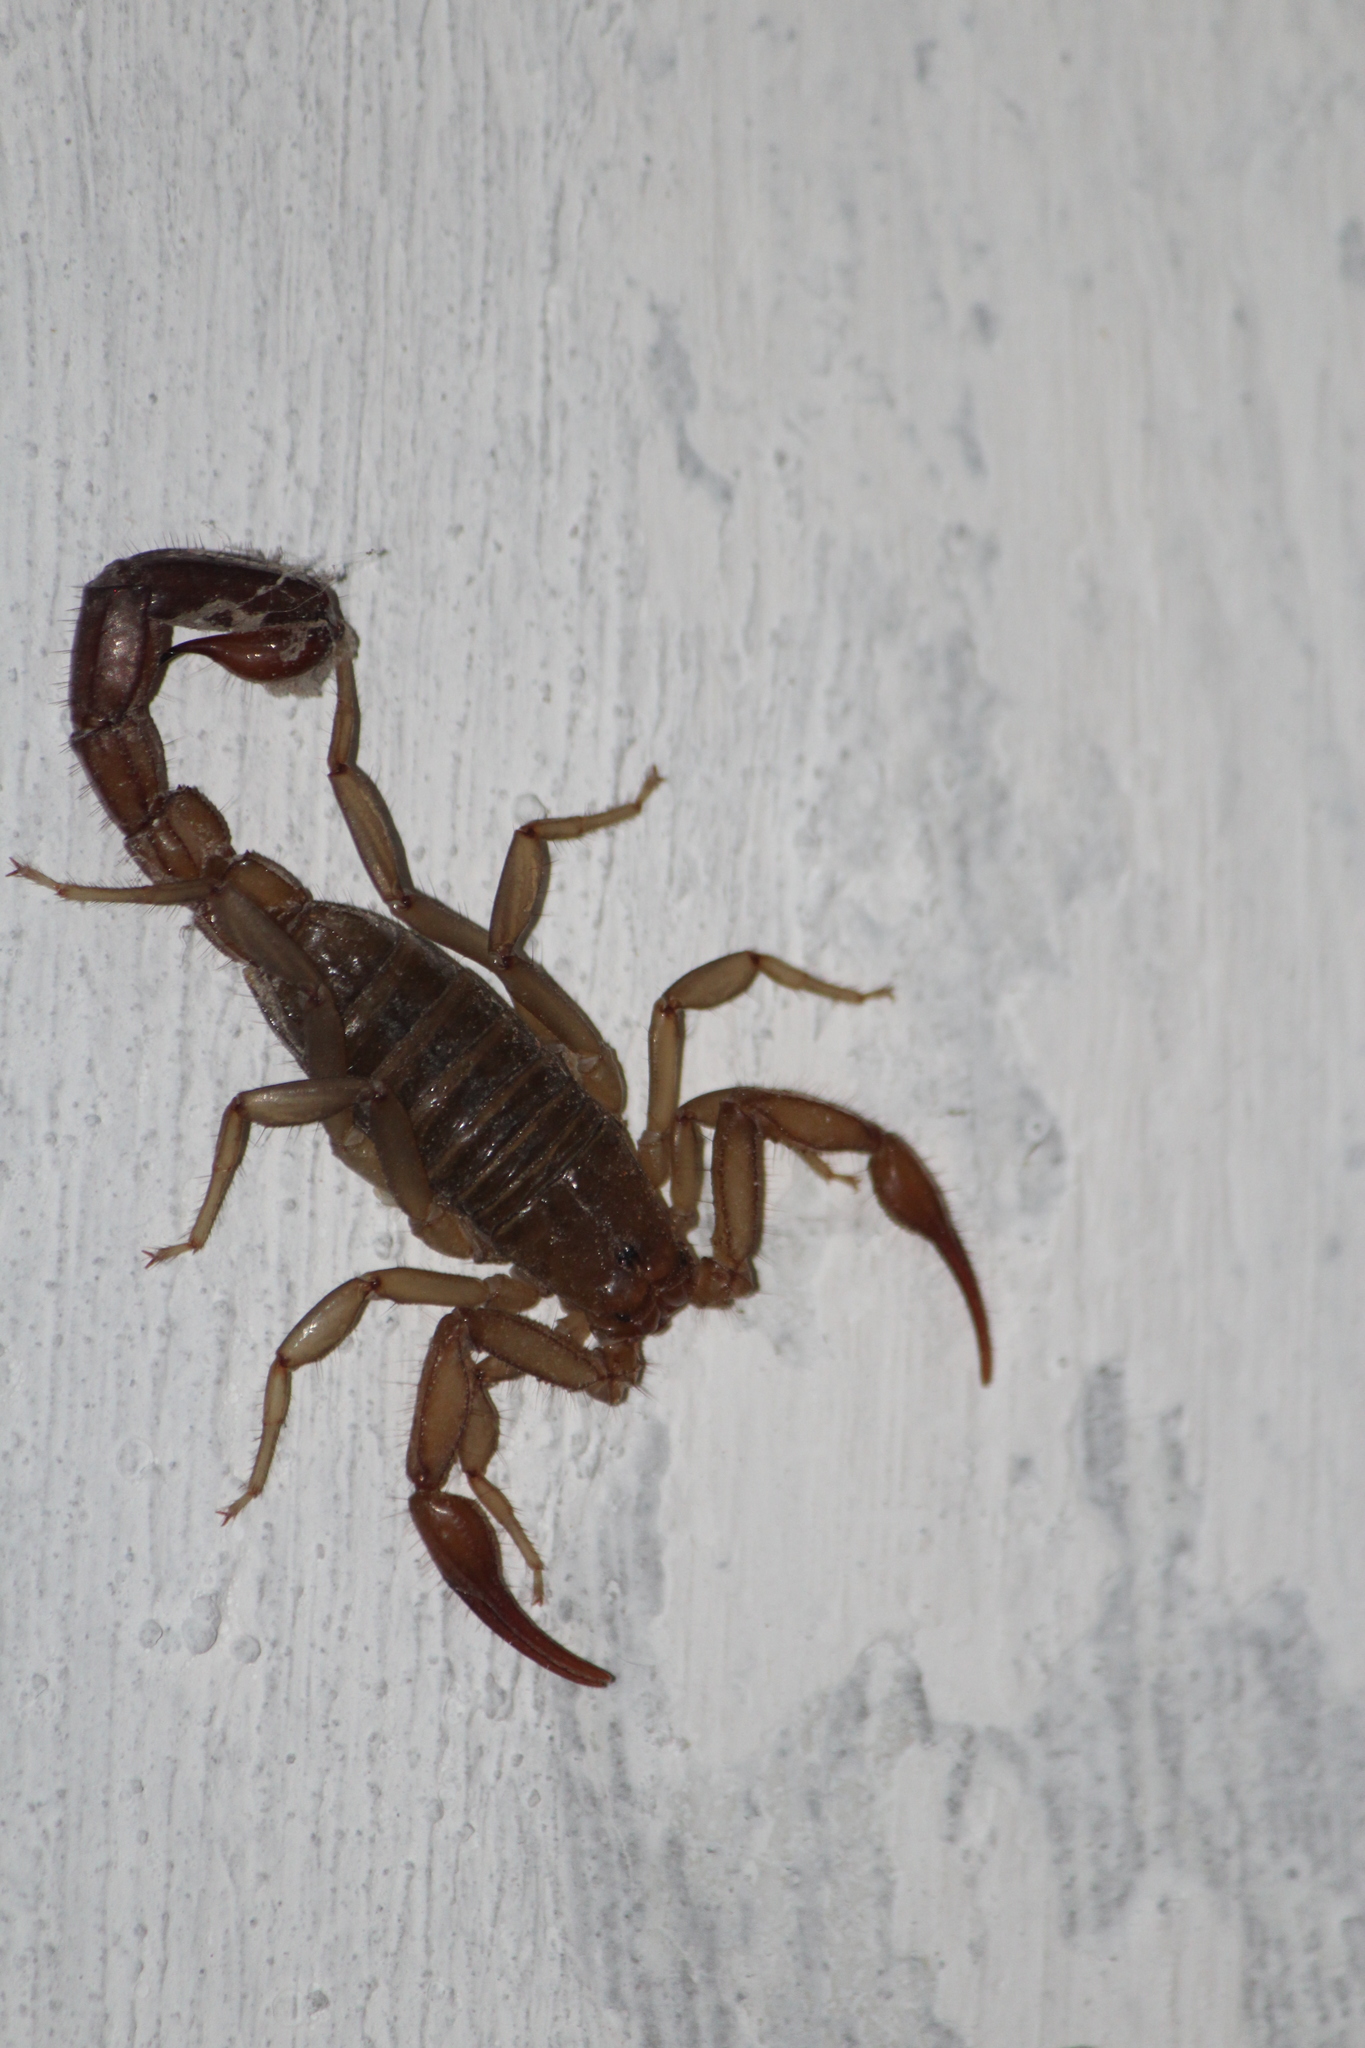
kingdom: Animalia
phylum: Arthropoda
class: Arachnida
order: Scorpiones
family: Vaejovidae
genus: Franckeus
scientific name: Franckeus nitidulus
